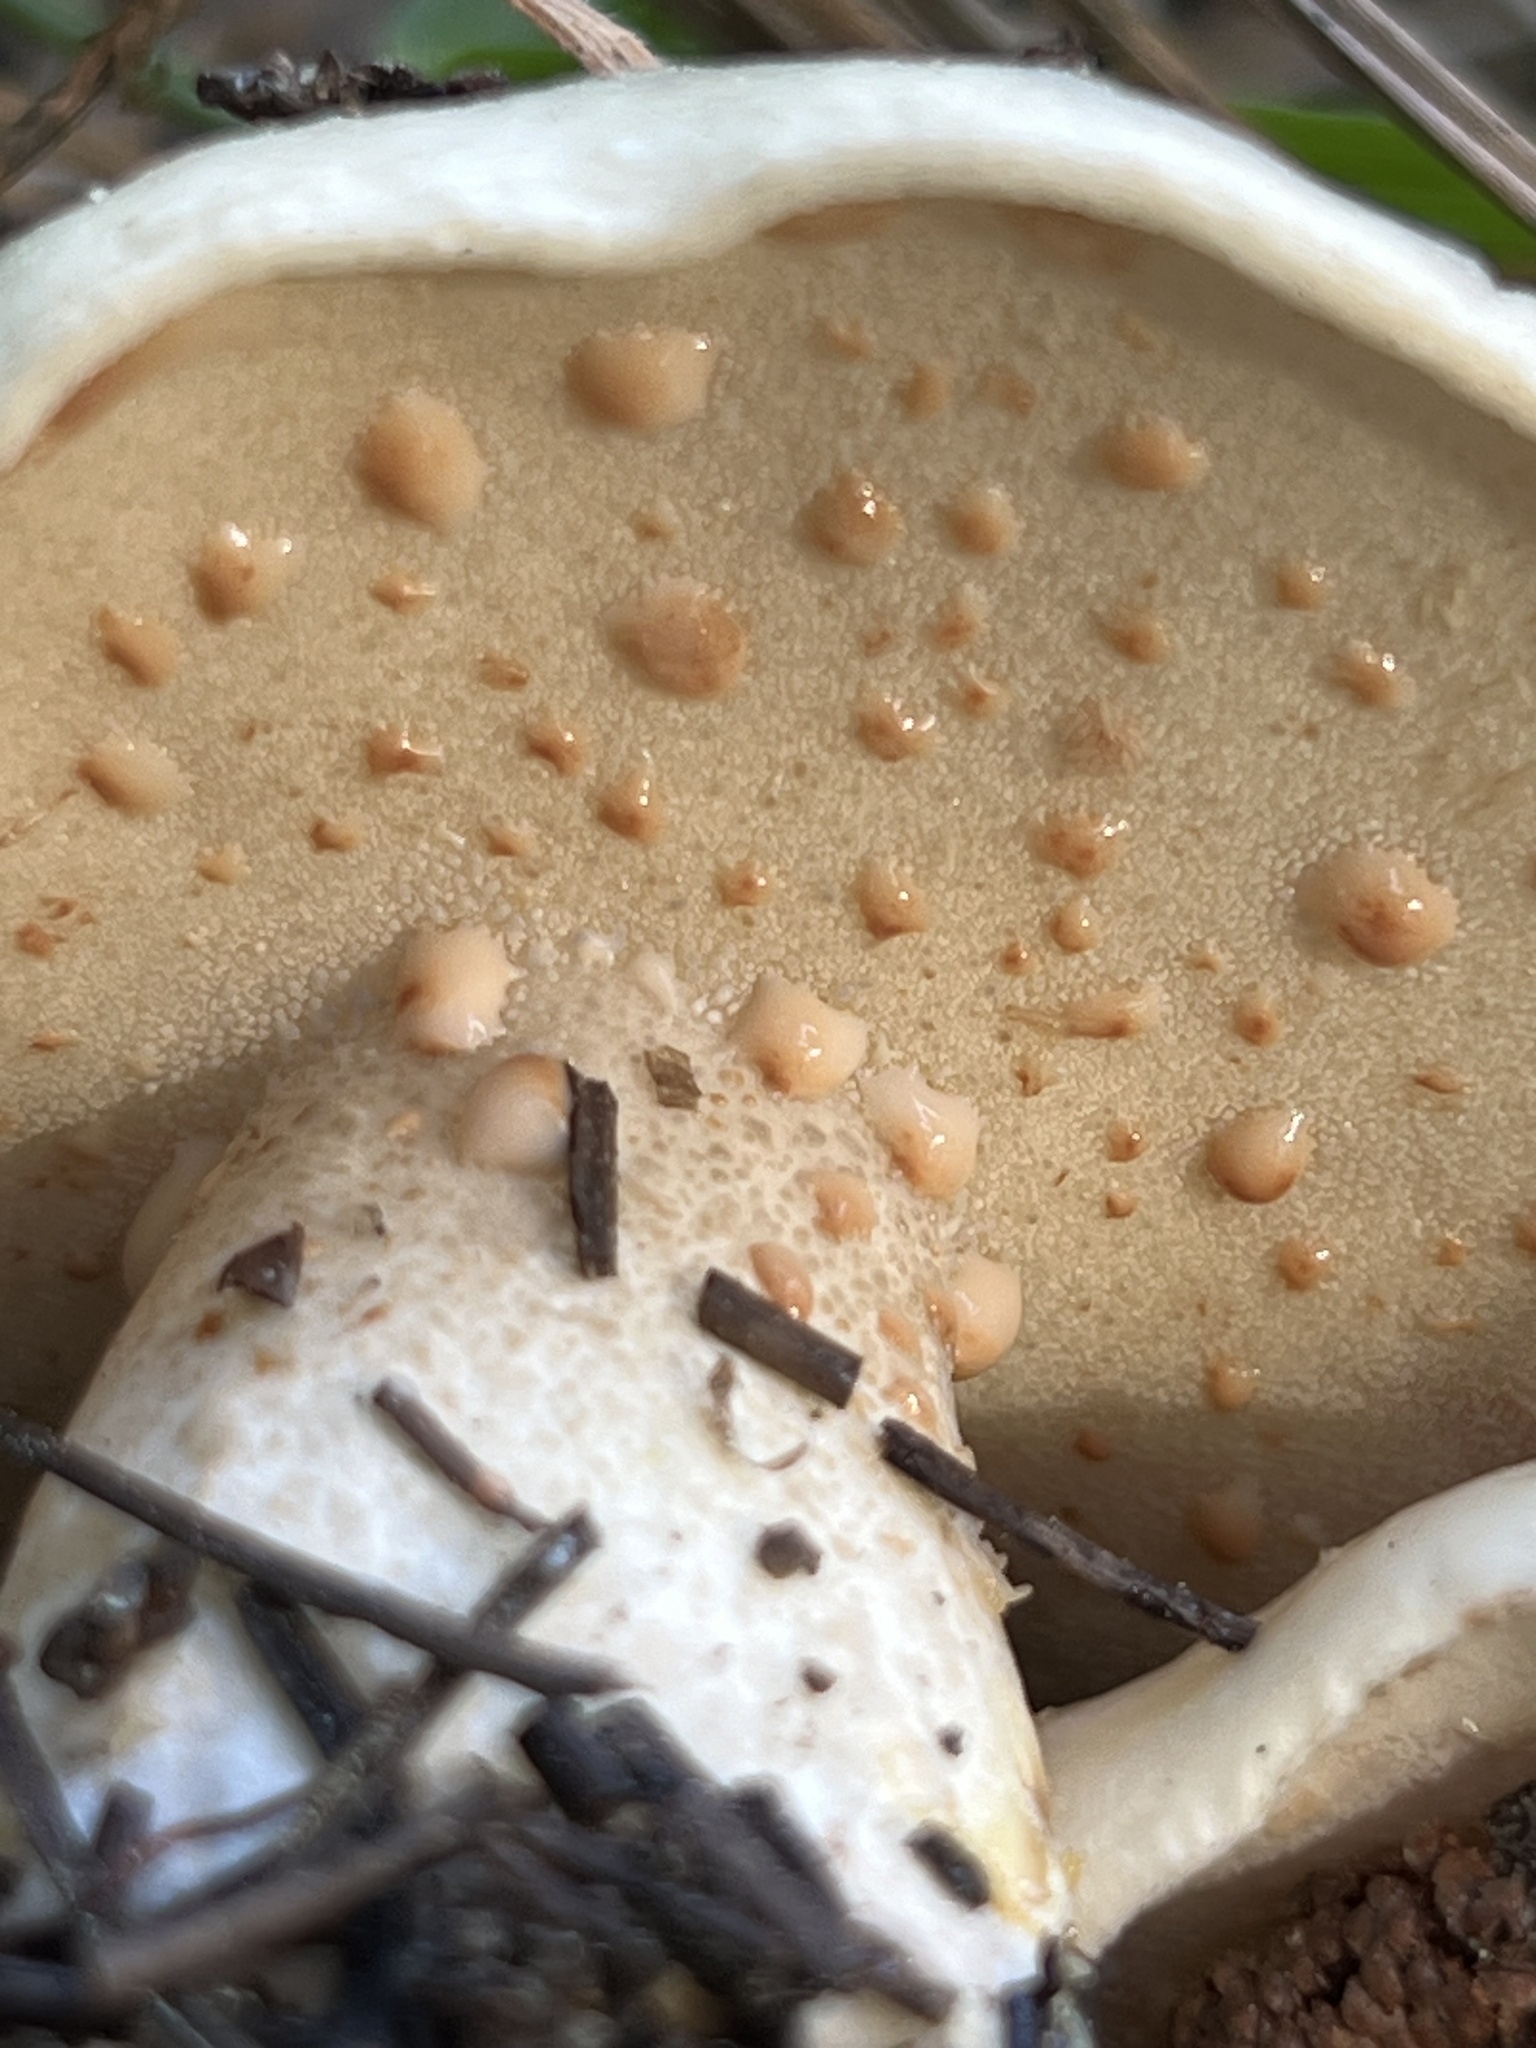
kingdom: Fungi
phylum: Basidiomycota
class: Agaricomycetes
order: Boletales
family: Suillaceae
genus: Suillus
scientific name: Suillus pungens
